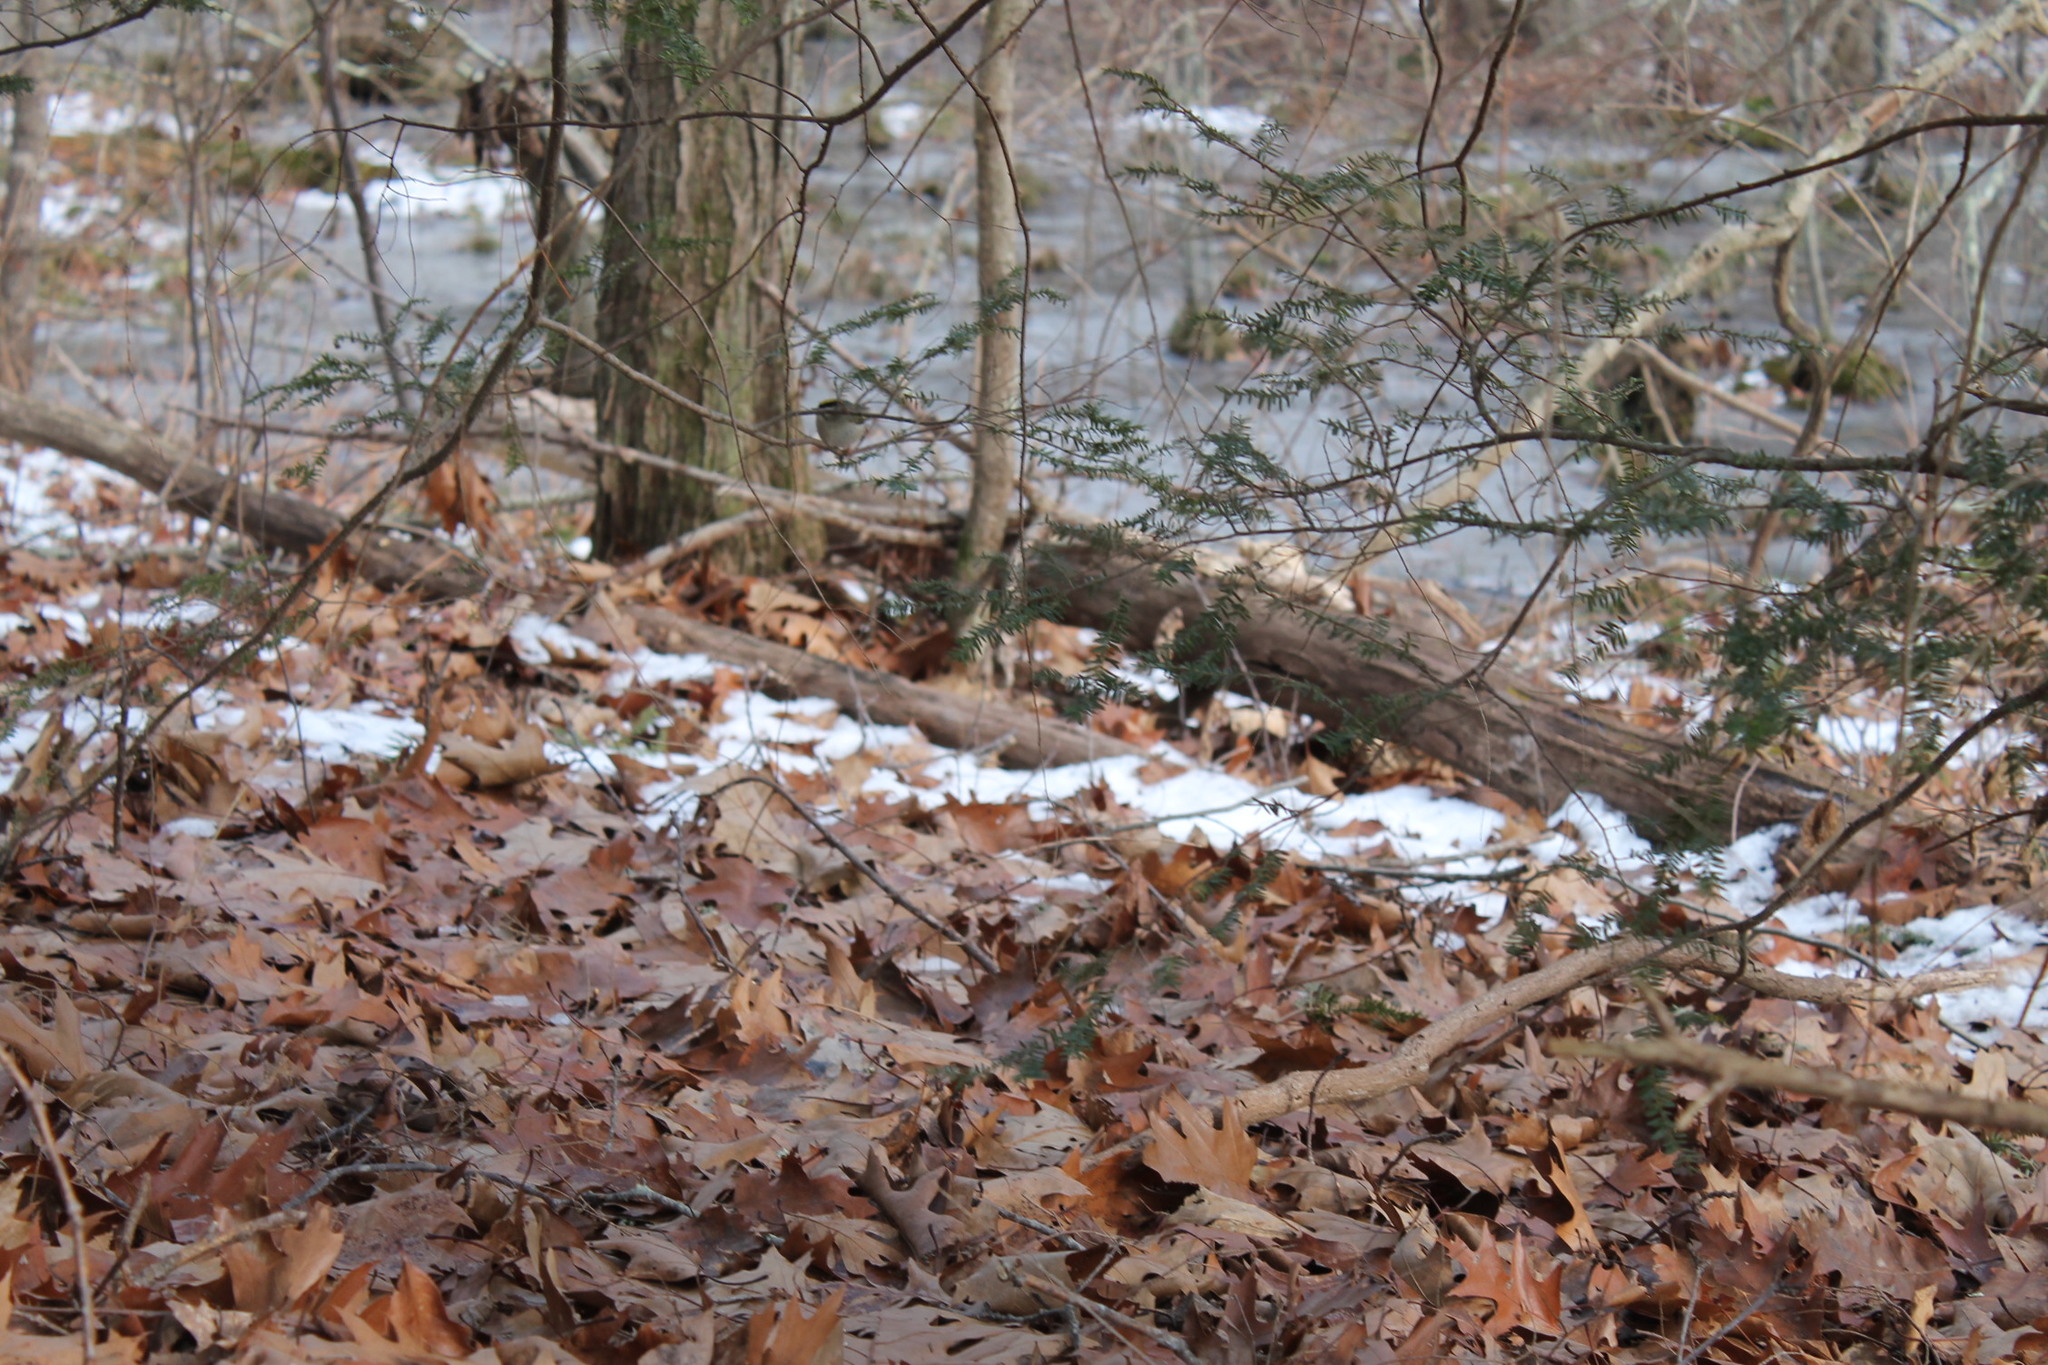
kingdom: Animalia
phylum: Chordata
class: Aves
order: Passeriformes
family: Regulidae
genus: Regulus
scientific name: Regulus satrapa
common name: Golden-crowned kinglet
